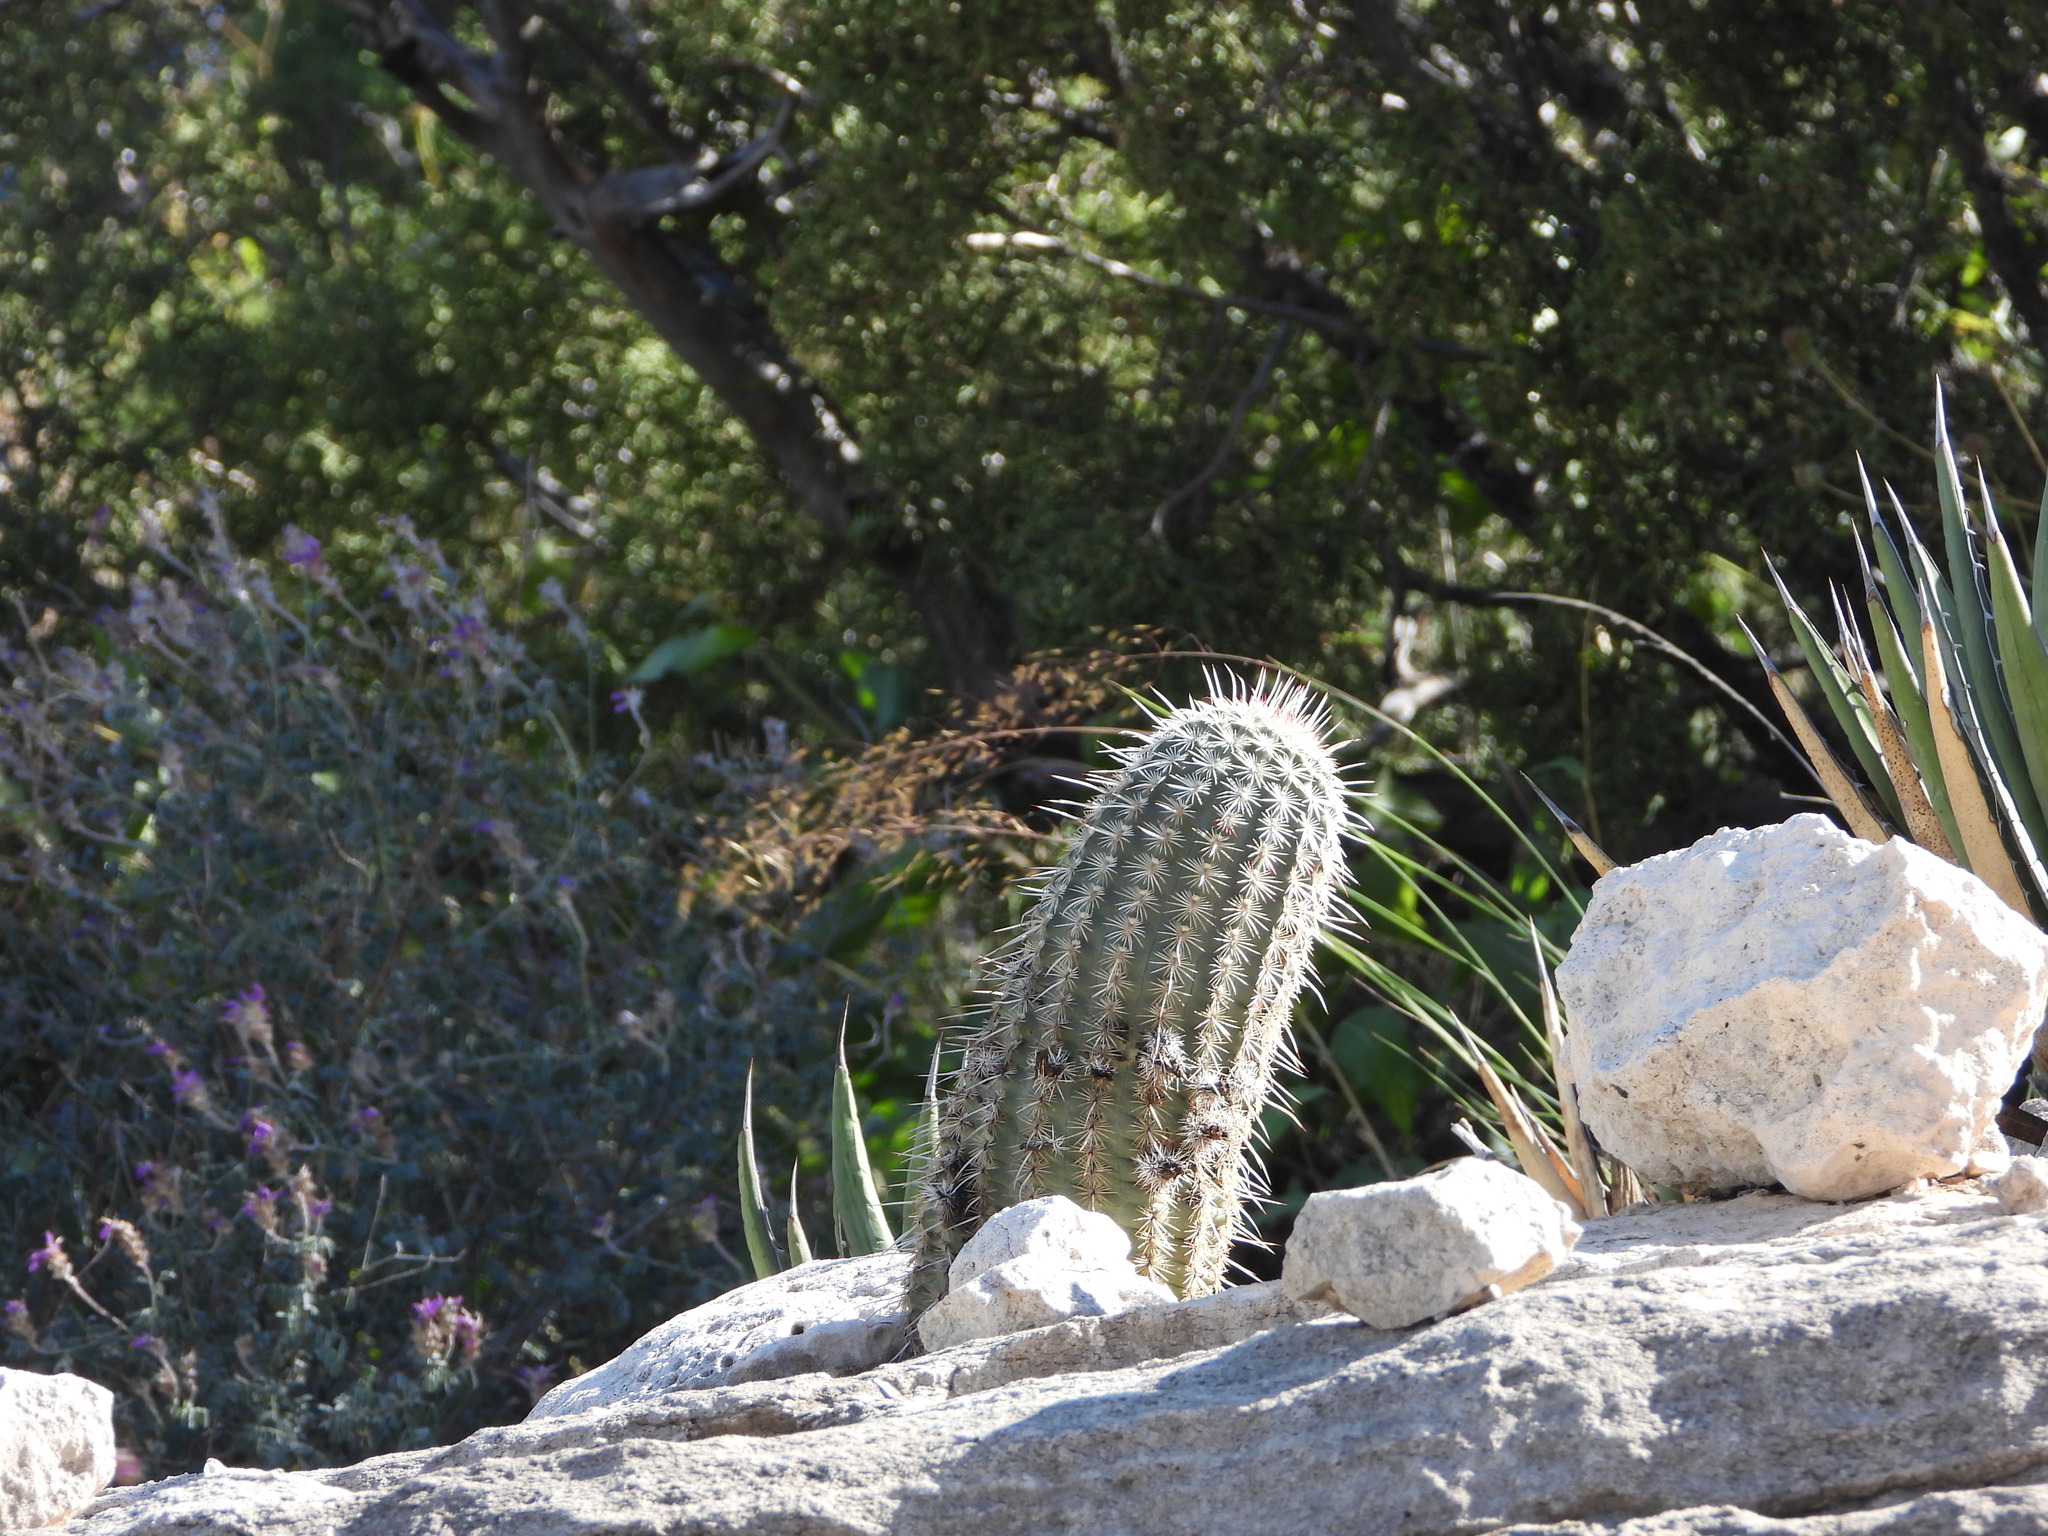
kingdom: Plantae
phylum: Tracheophyta
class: Magnoliopsida
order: Caryophyllales
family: Cactaceae
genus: Echinocereus
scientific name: Echinocereus viridiflorus
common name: Nylon hedgehog cactus
